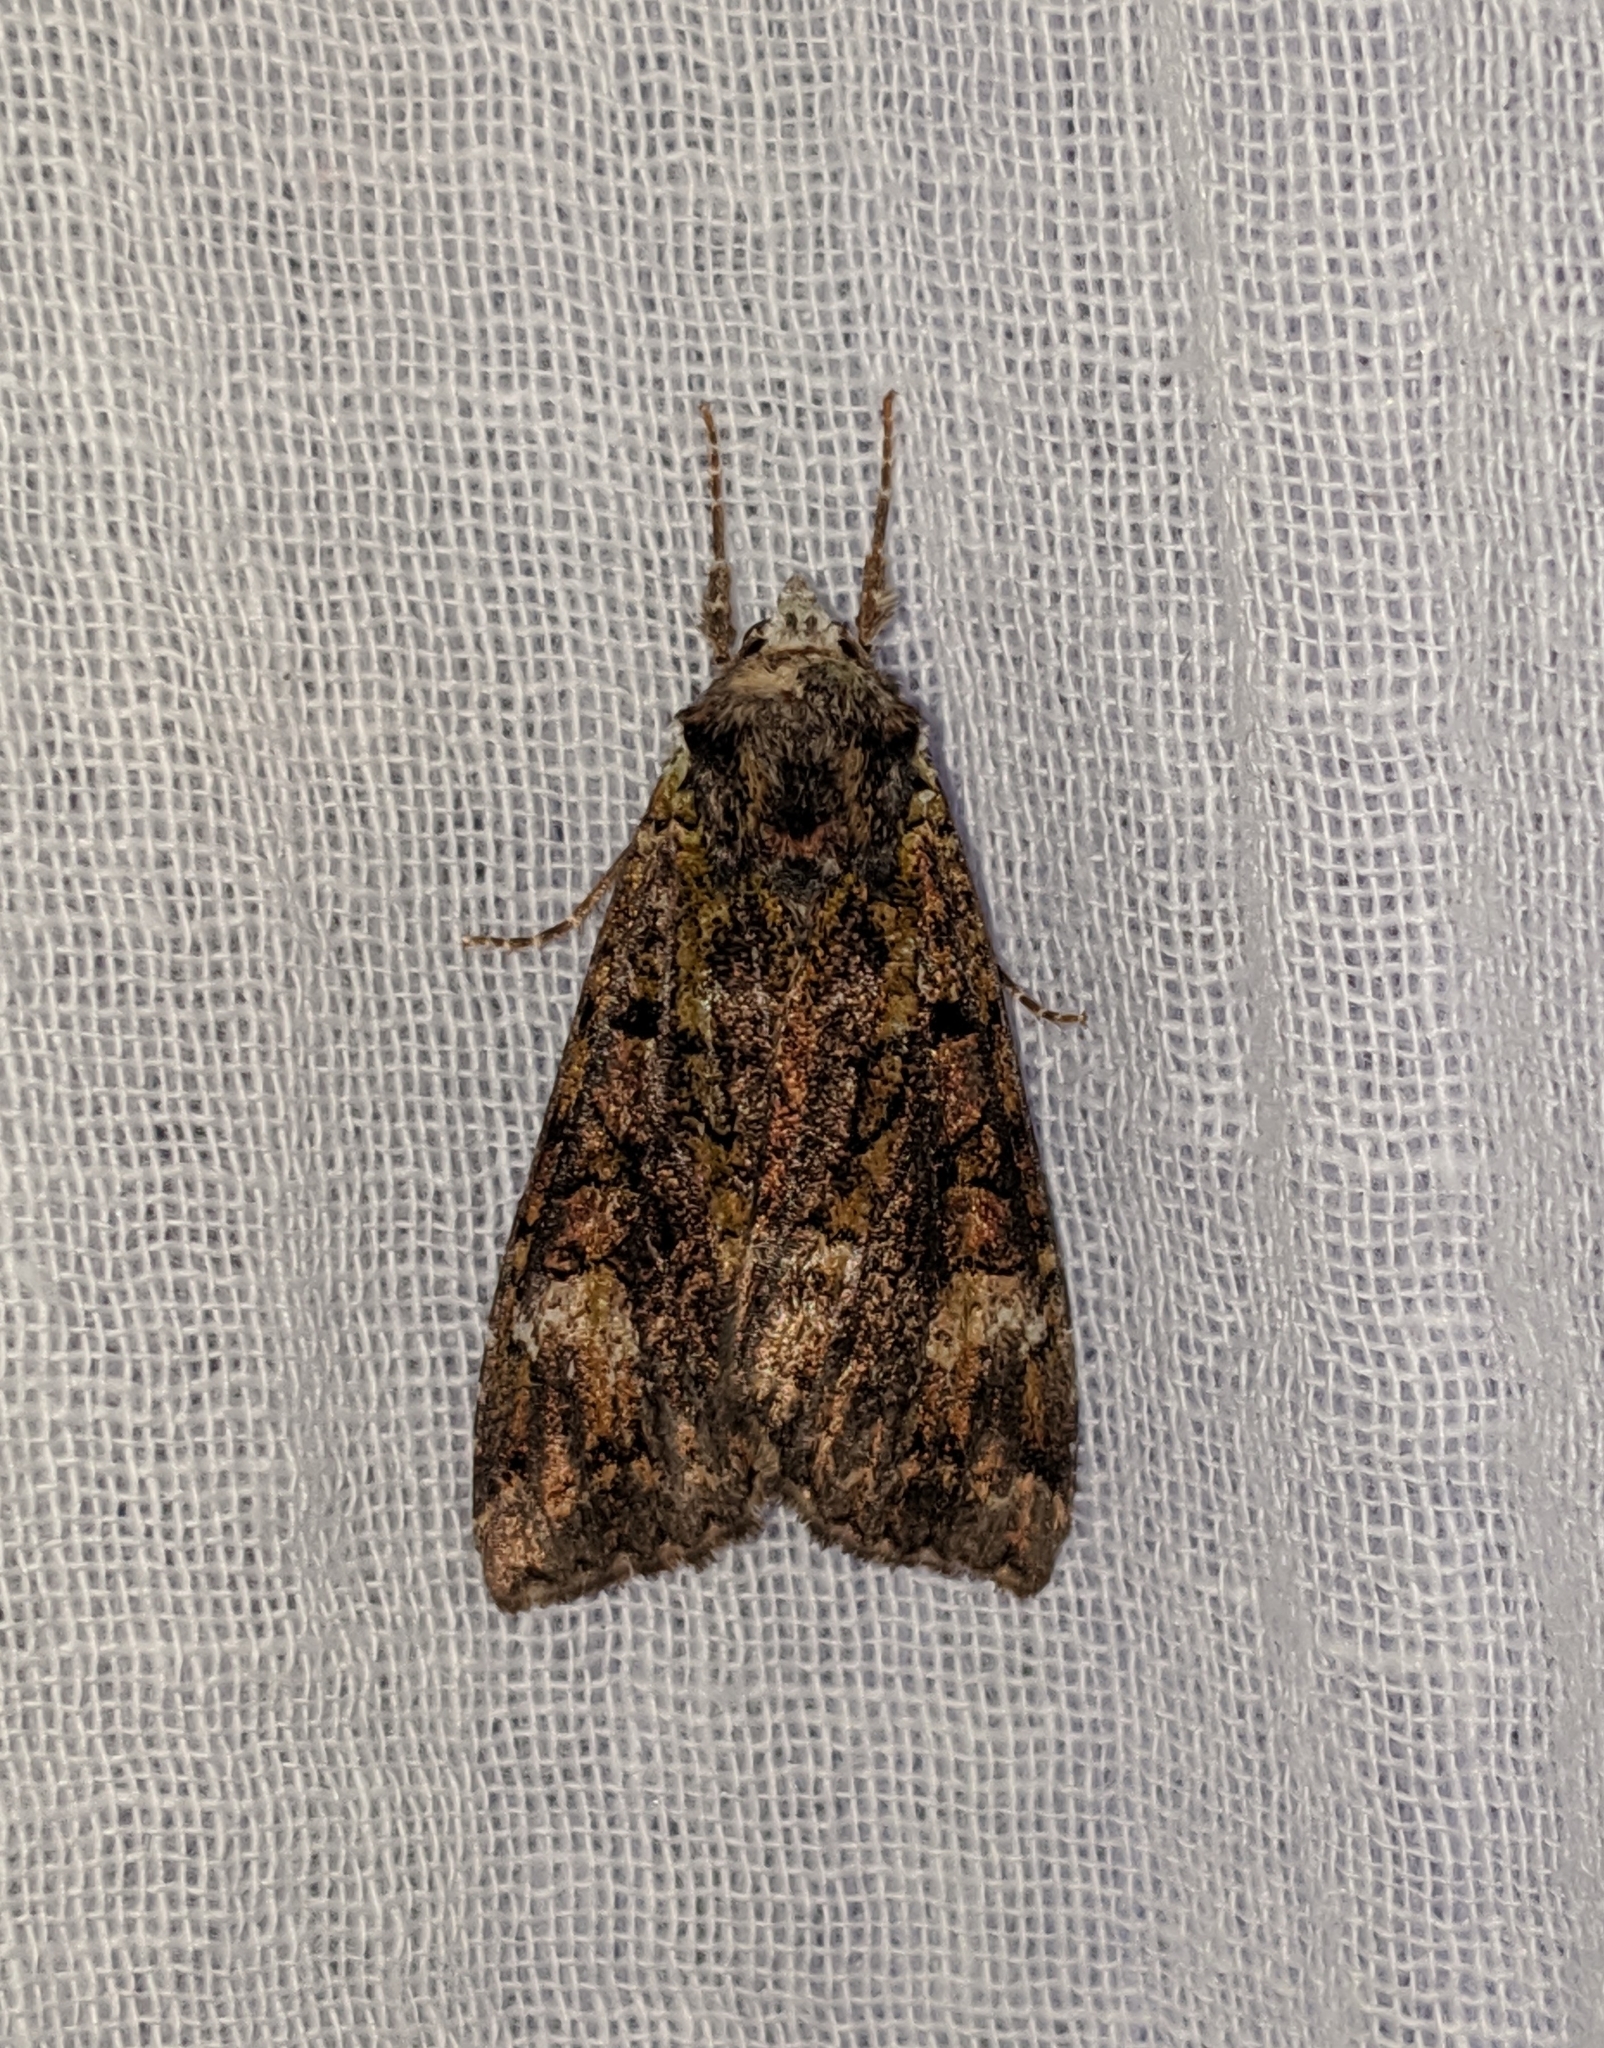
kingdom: Animalia
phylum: Arthropoda
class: Insecta
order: Lepidoptera
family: Noctuidae
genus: Anaplectoides
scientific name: Anaplectoides prasina
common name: Green arches
